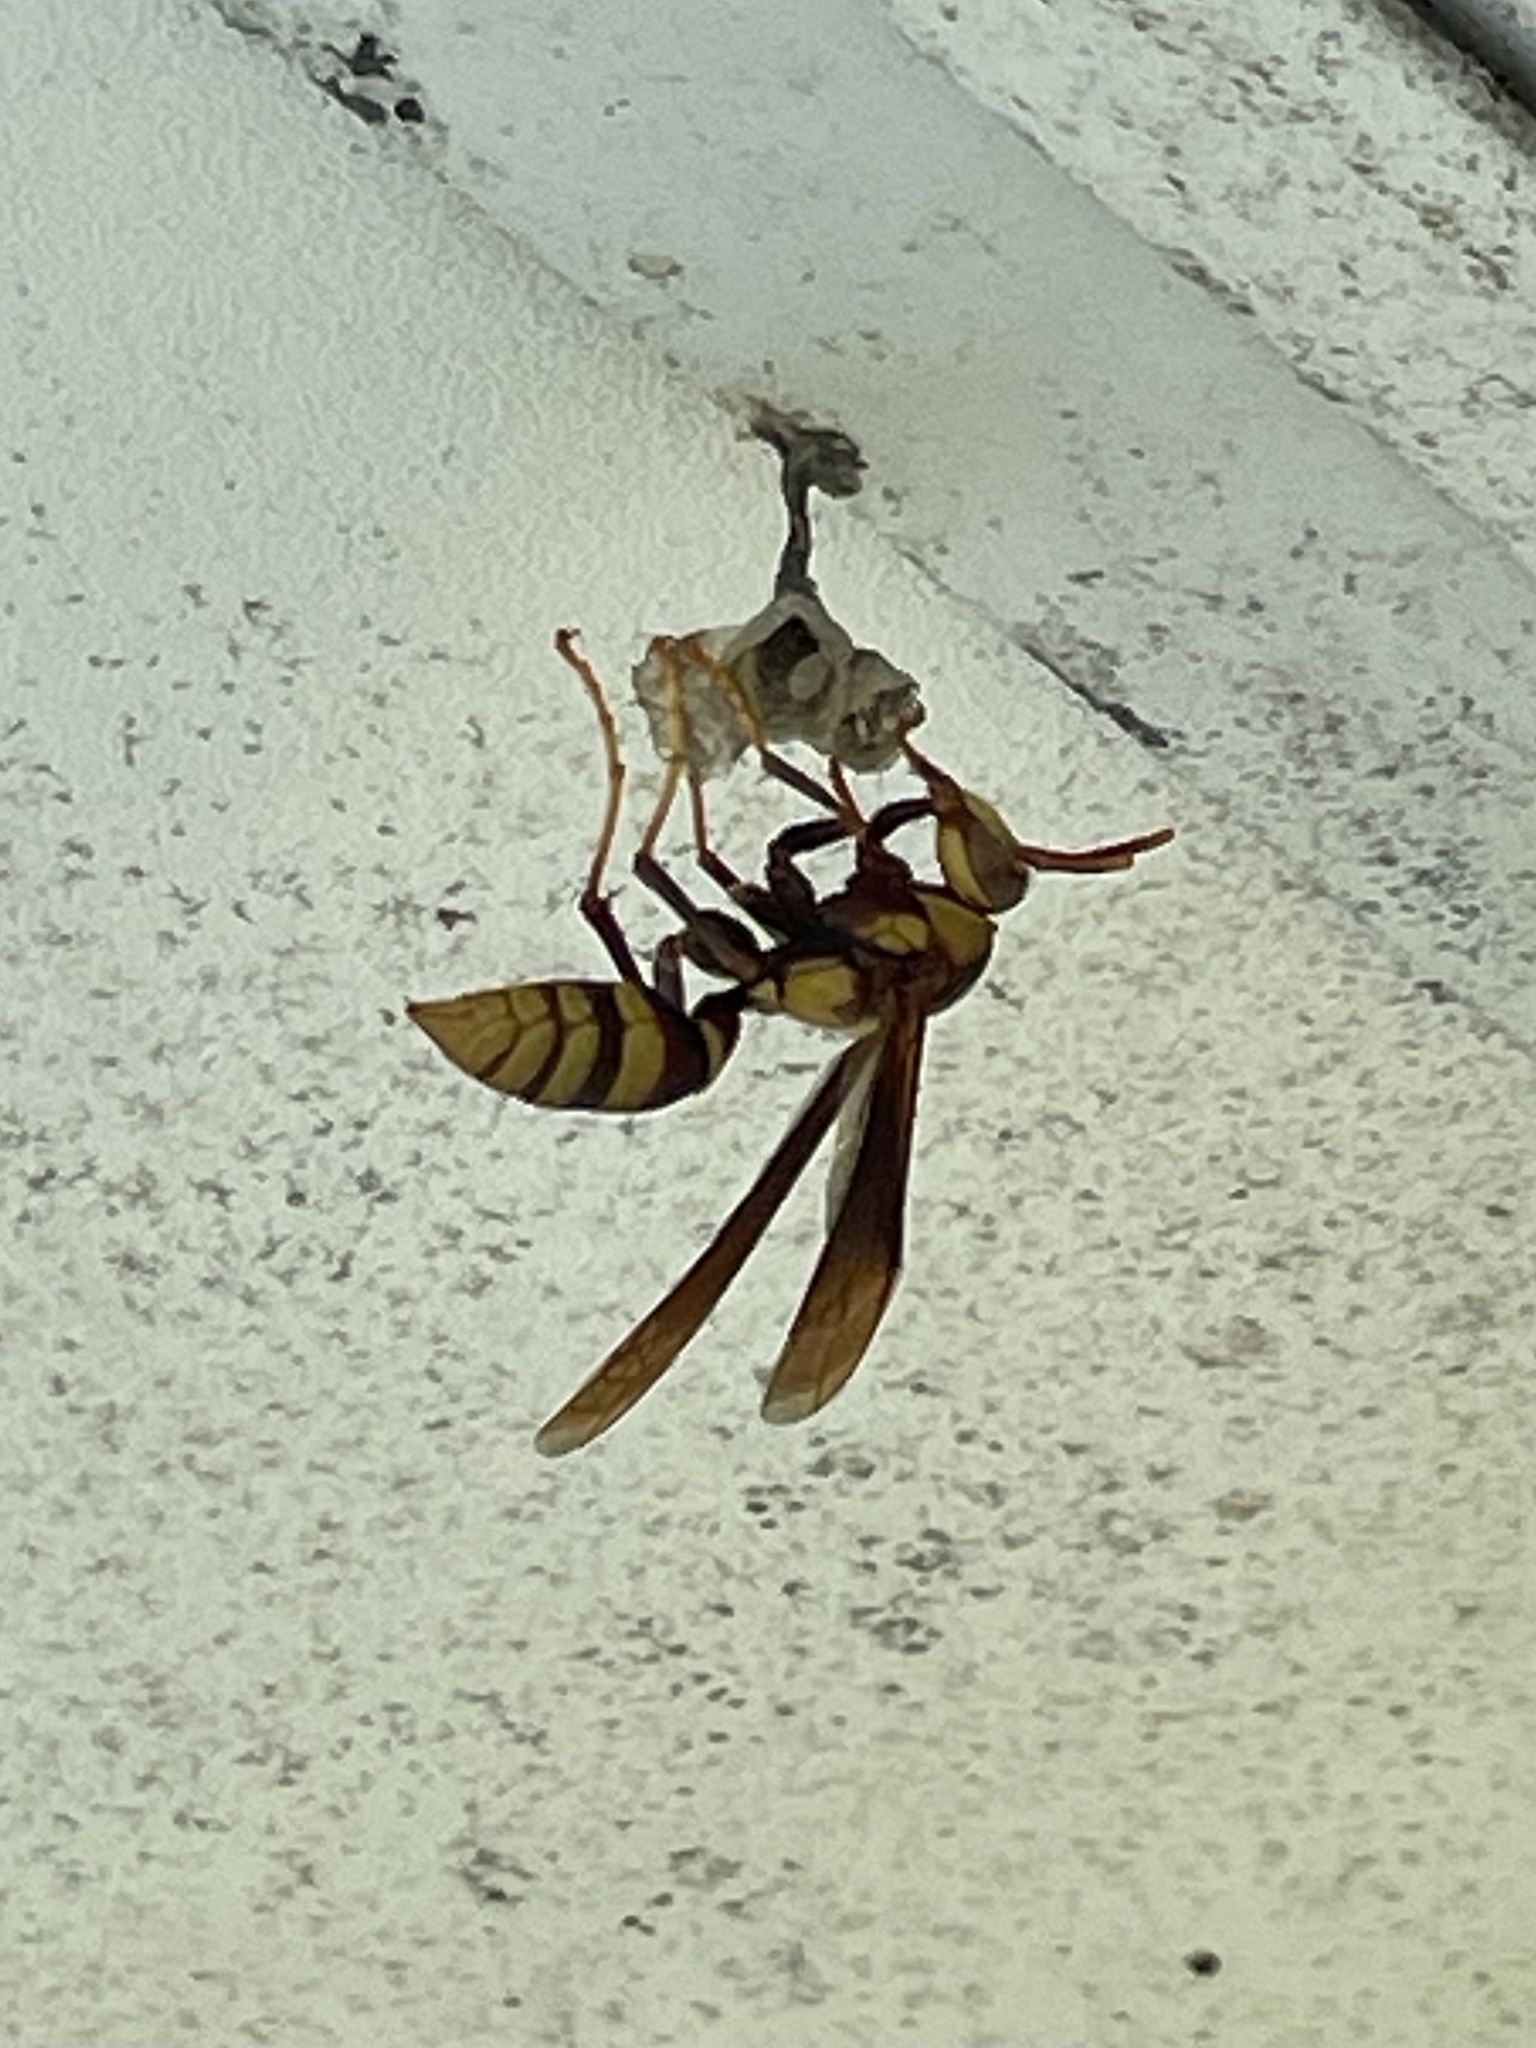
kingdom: Animalia
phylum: Arthropoda
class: Insecta
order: Hymenoptera
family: Eumenidae
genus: Polistes
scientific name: Polistes major
